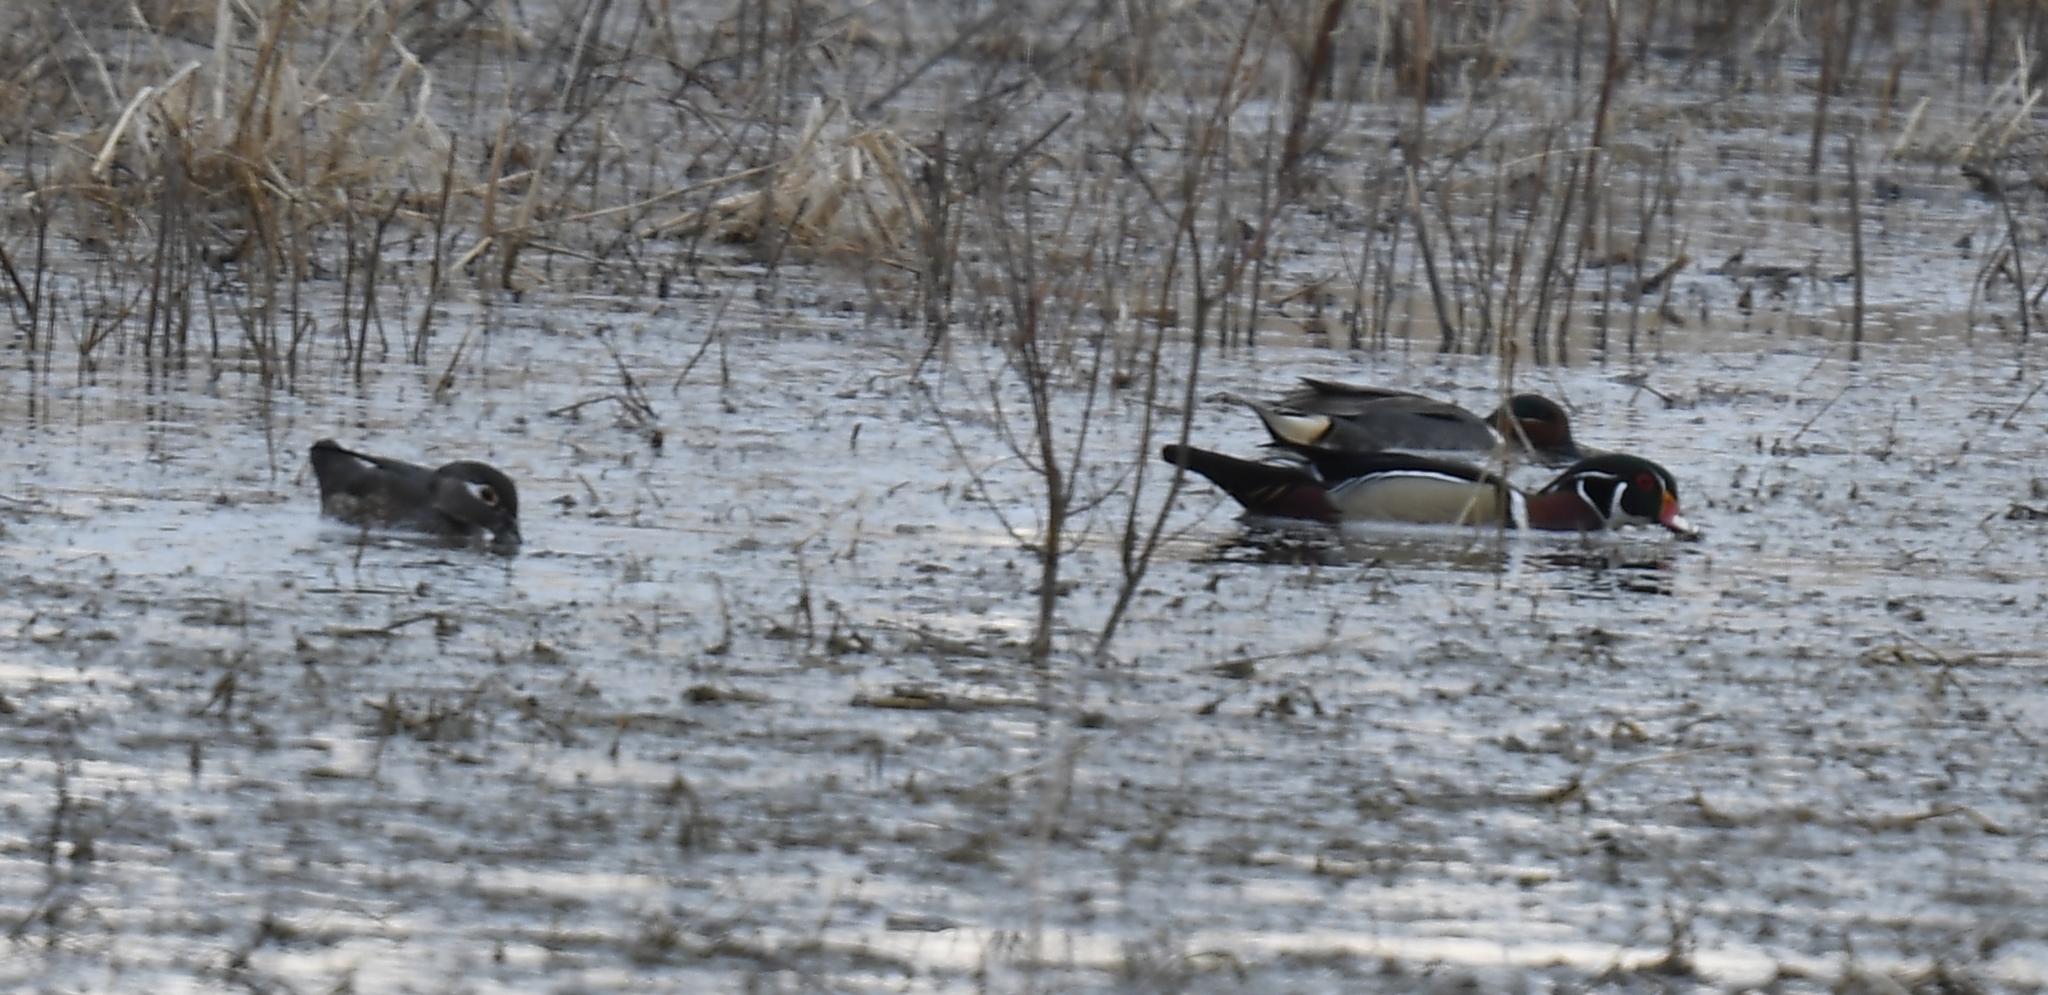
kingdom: Animalia
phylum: Chordata
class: Aves
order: Anseriformes
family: Anatidae
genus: Aix
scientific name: Aix sponsa
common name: Wood duck
